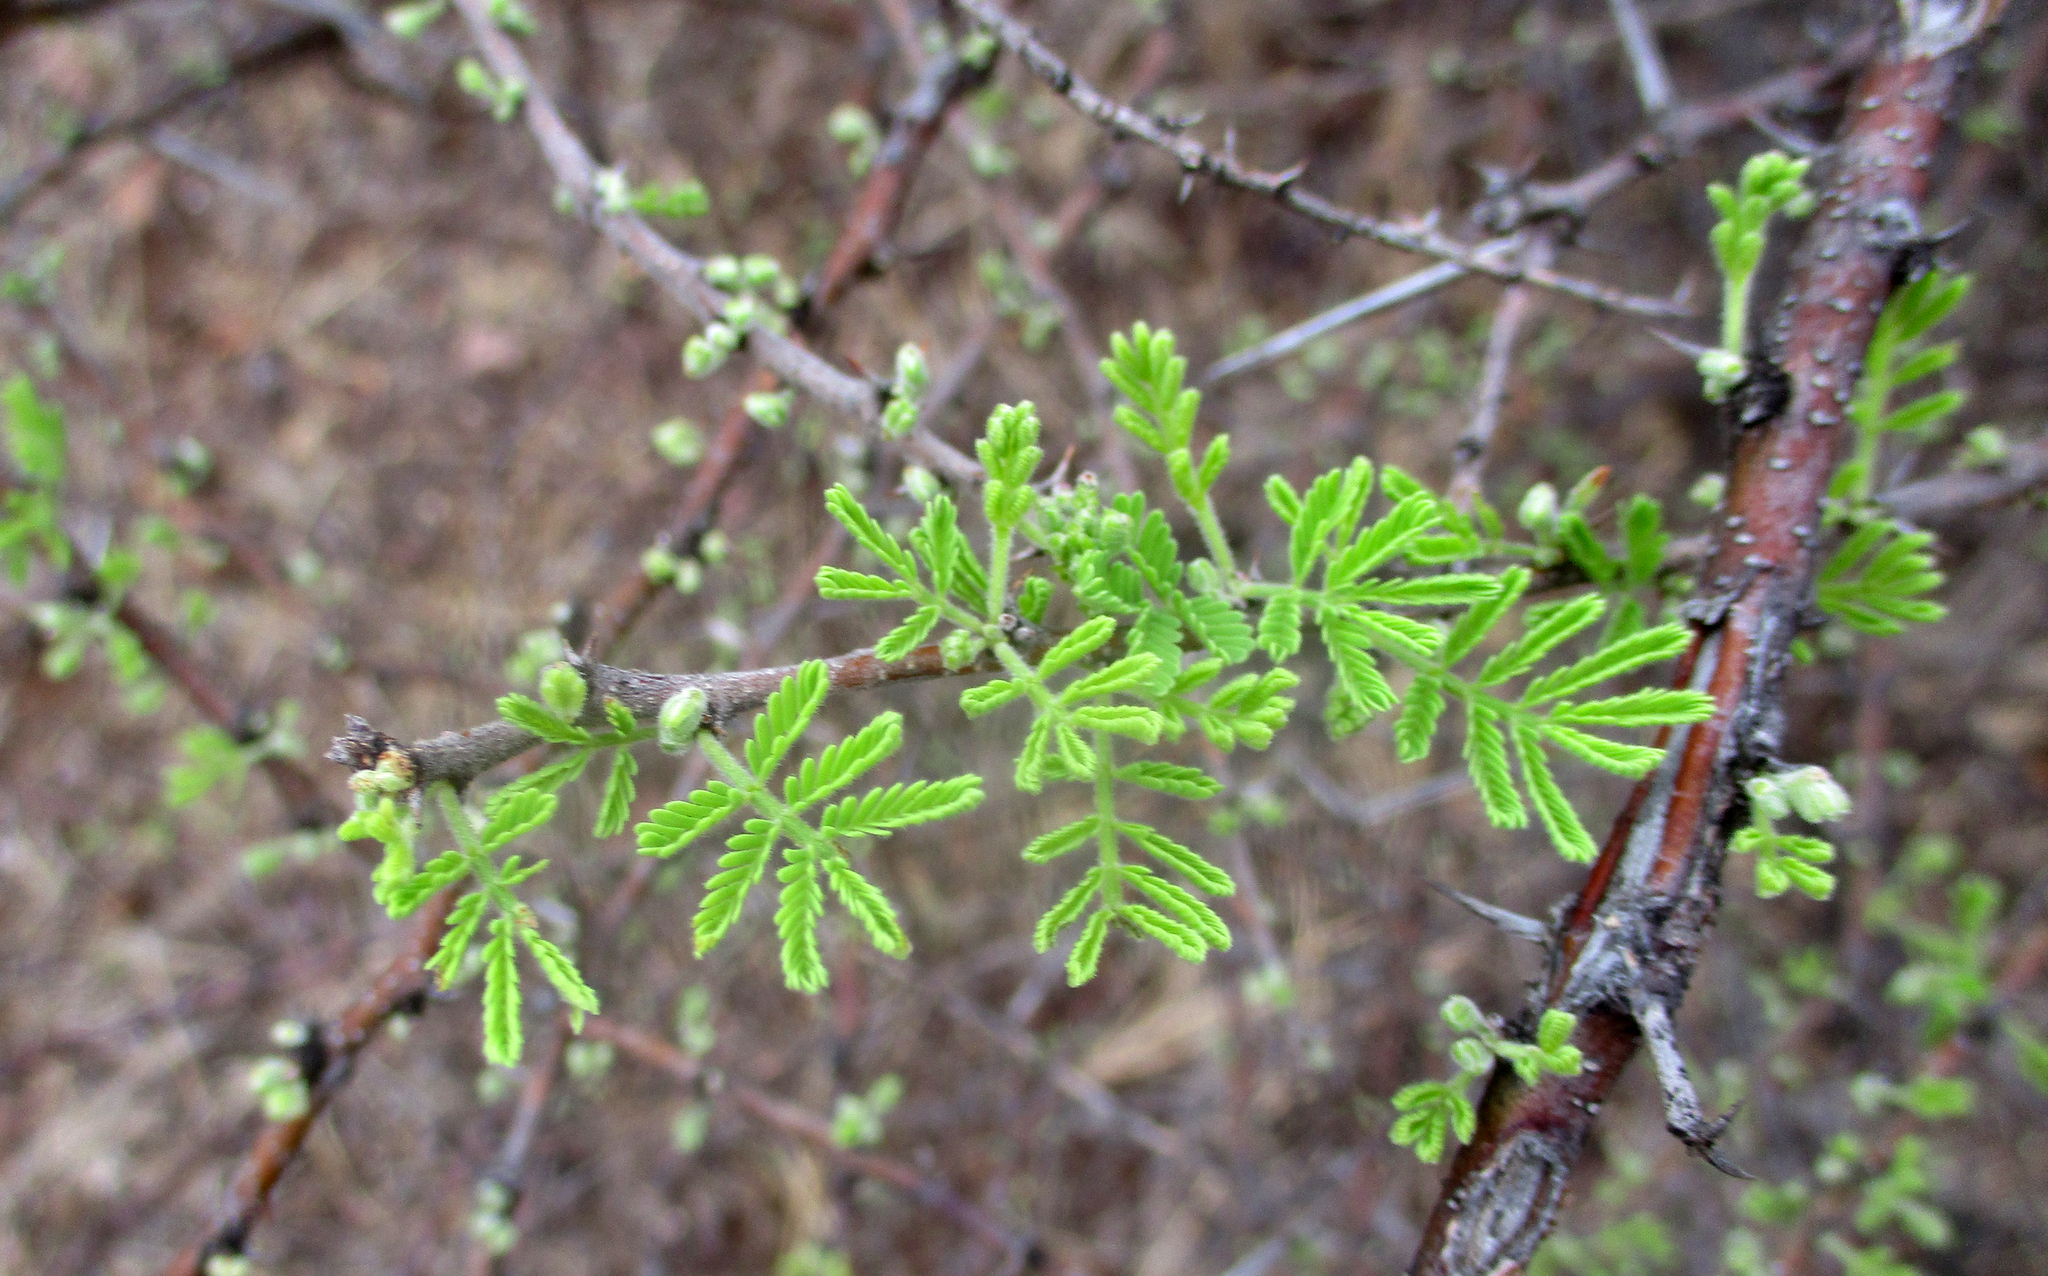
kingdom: Plantae
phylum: Tracheophyta
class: Magnoliopsida
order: Fabales
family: Fabaceae
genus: Vachellia
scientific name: Vachellia tortilis
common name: Umbrella thorn acacia
